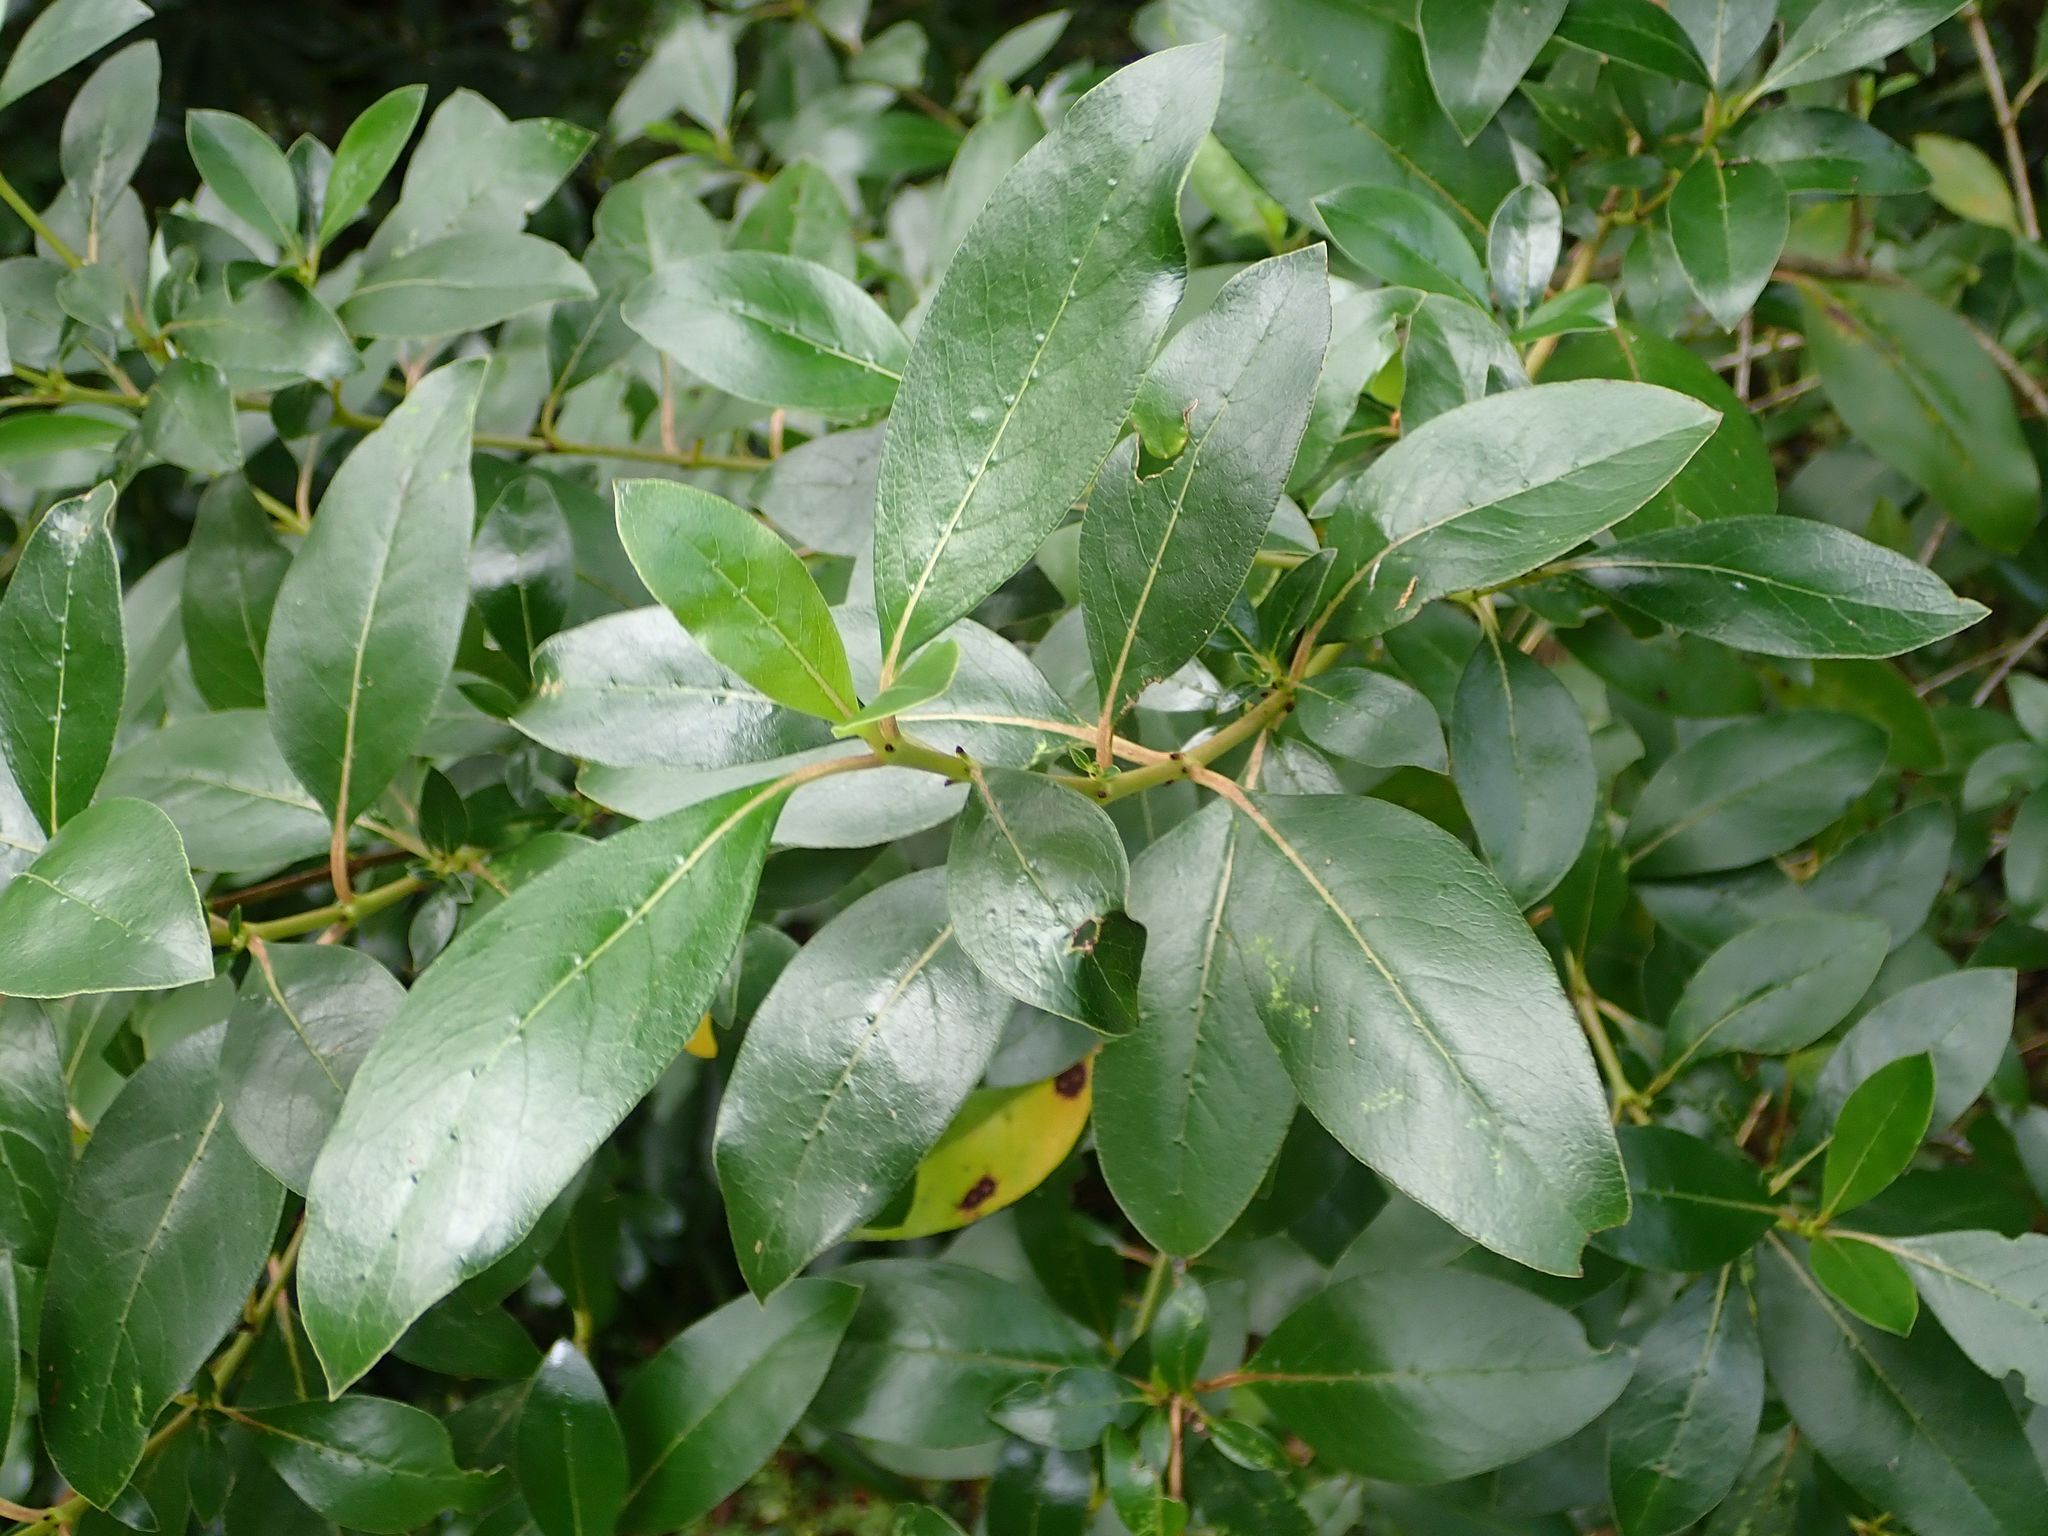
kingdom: Plantae
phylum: Tracheophyta
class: Magnoliopsida
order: Gentianales
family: Rubiaceae
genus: Coprosma
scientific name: Coprosma robusta
